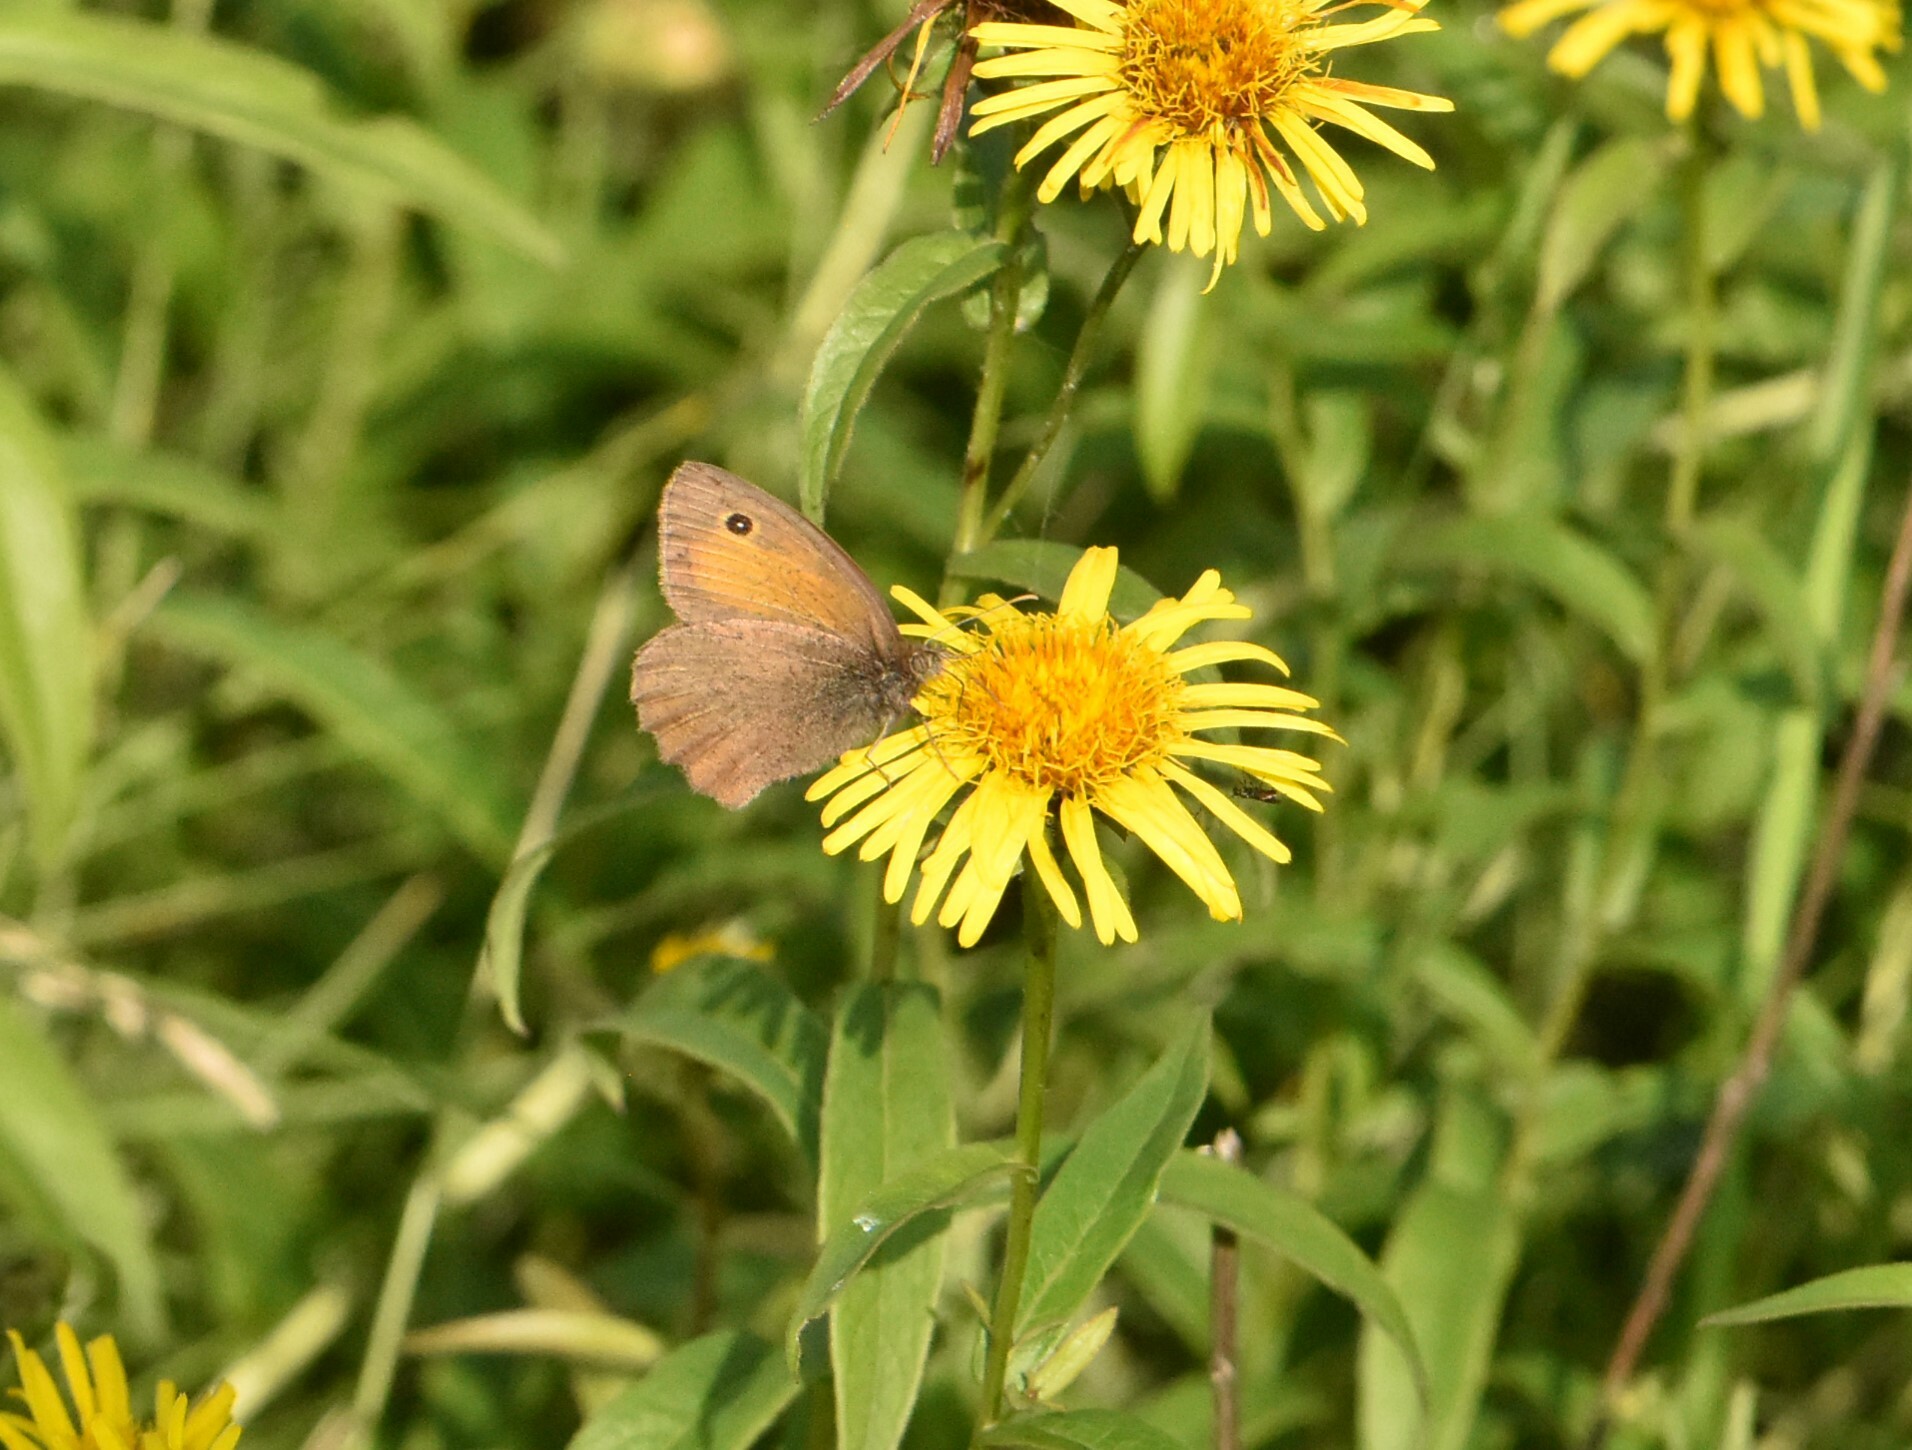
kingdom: Animalia
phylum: Arthropoda
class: Insecta
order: Lepidoptera
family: Nymphalidae
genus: Hyponephele
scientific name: Hyponephele lycaon
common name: Dusky meadow brown
